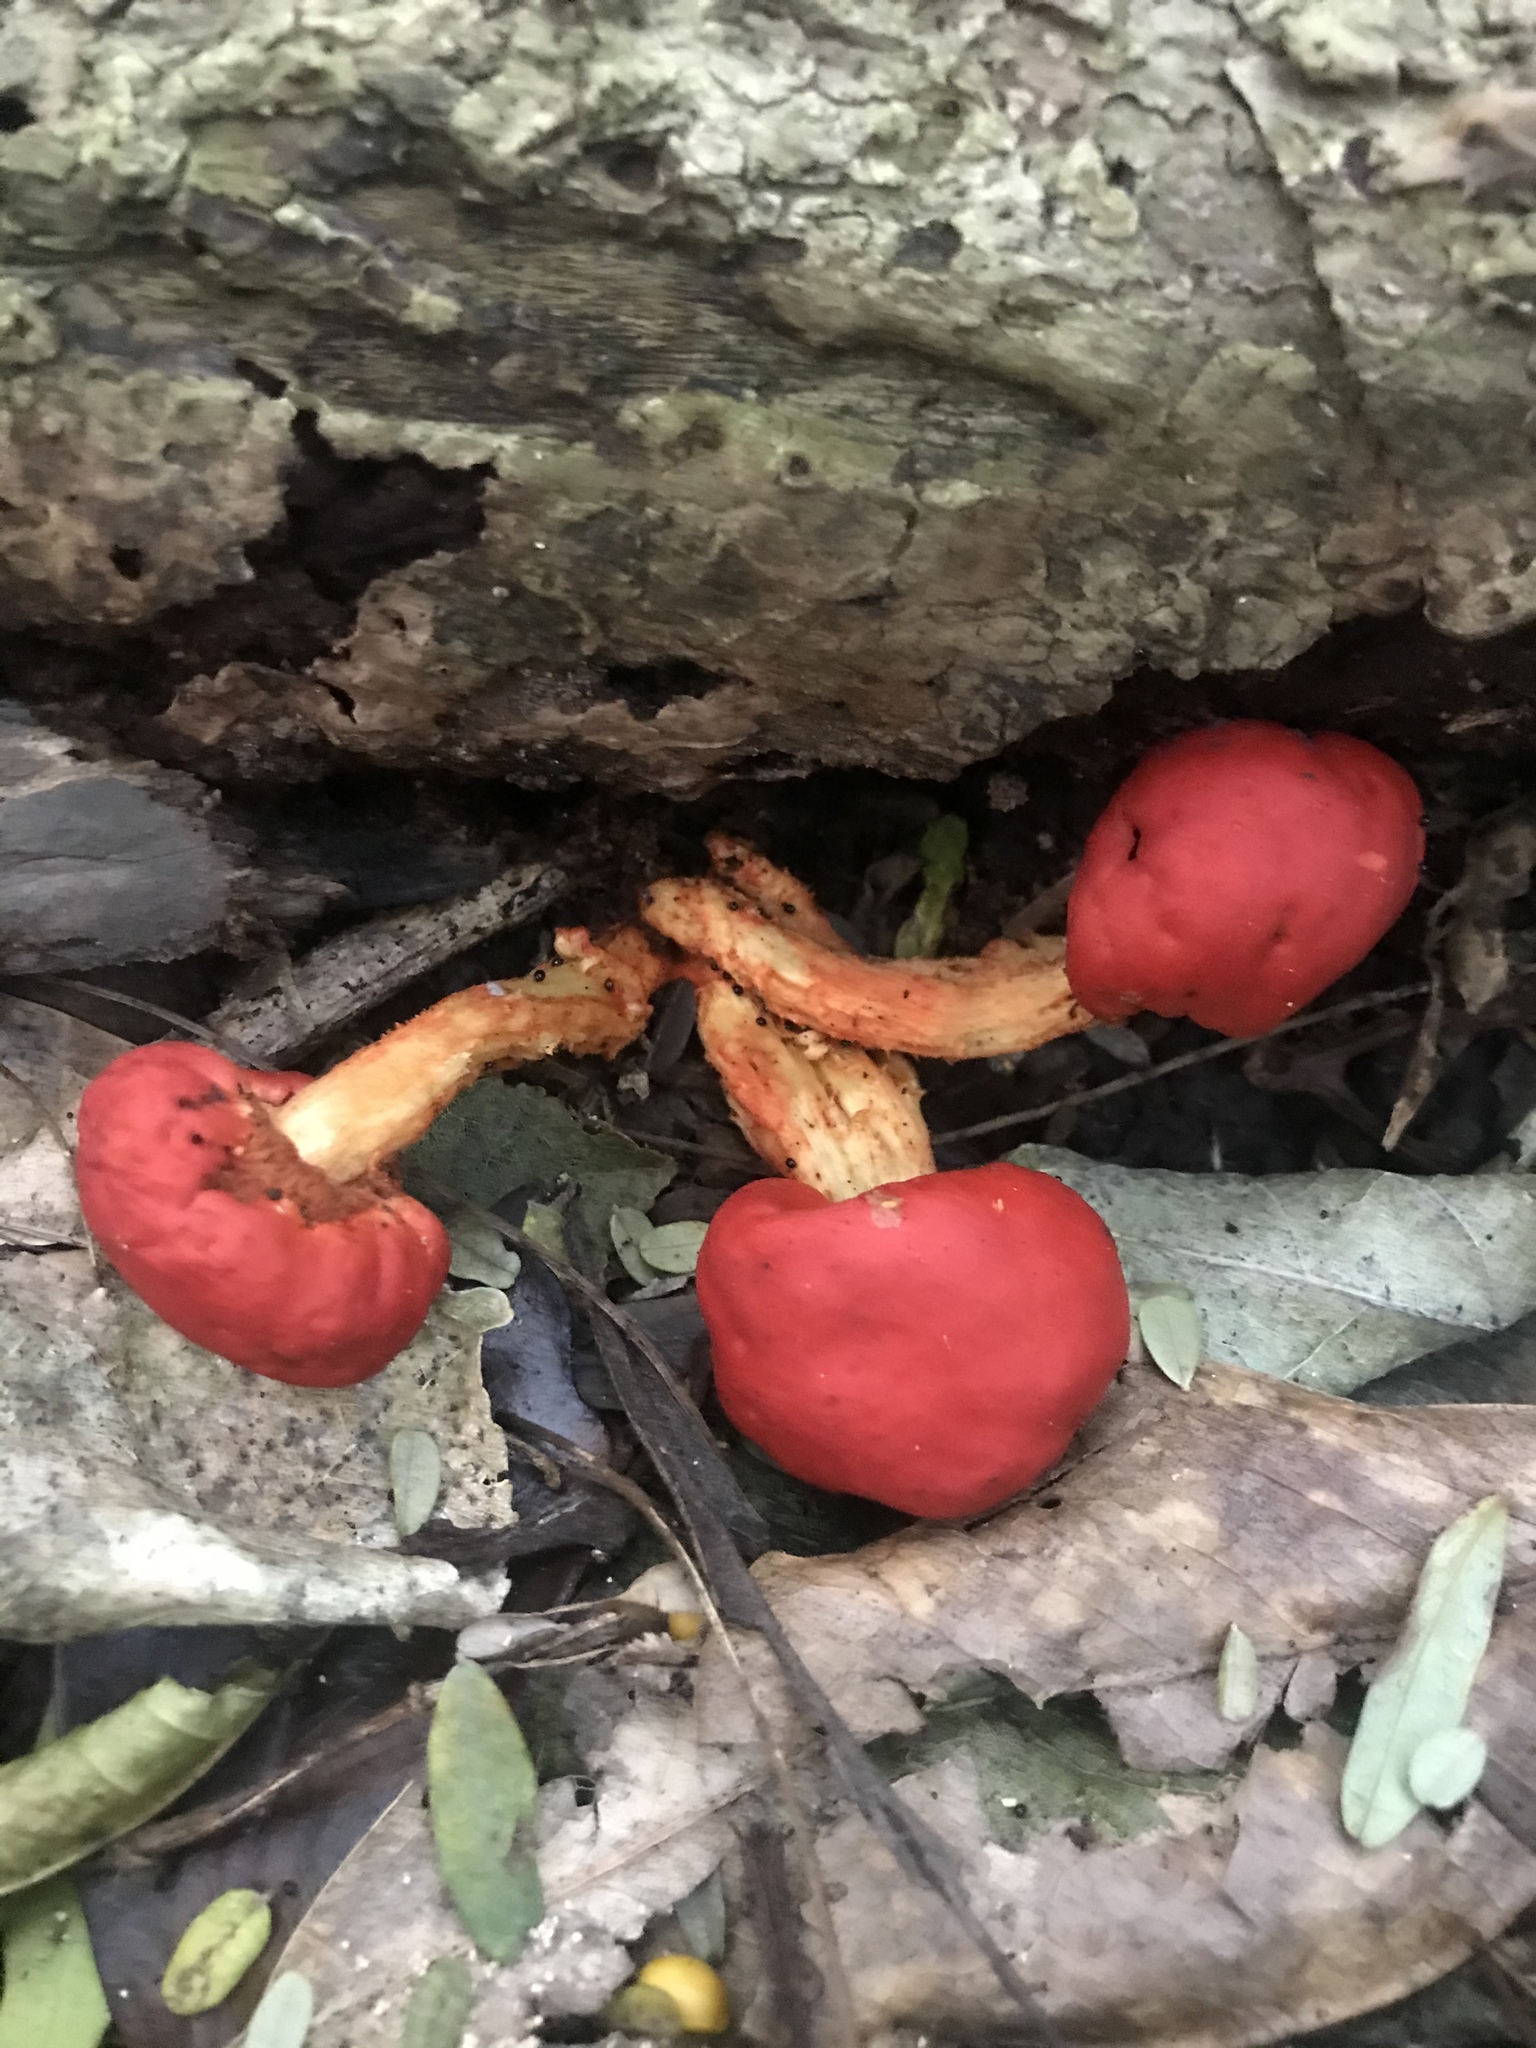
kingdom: Fungi
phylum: Basidiomycota
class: Agaricomycetes
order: Agaricales
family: Strophariaceae
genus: Leratiomyces
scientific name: Leratiomyces erythrocephalus
